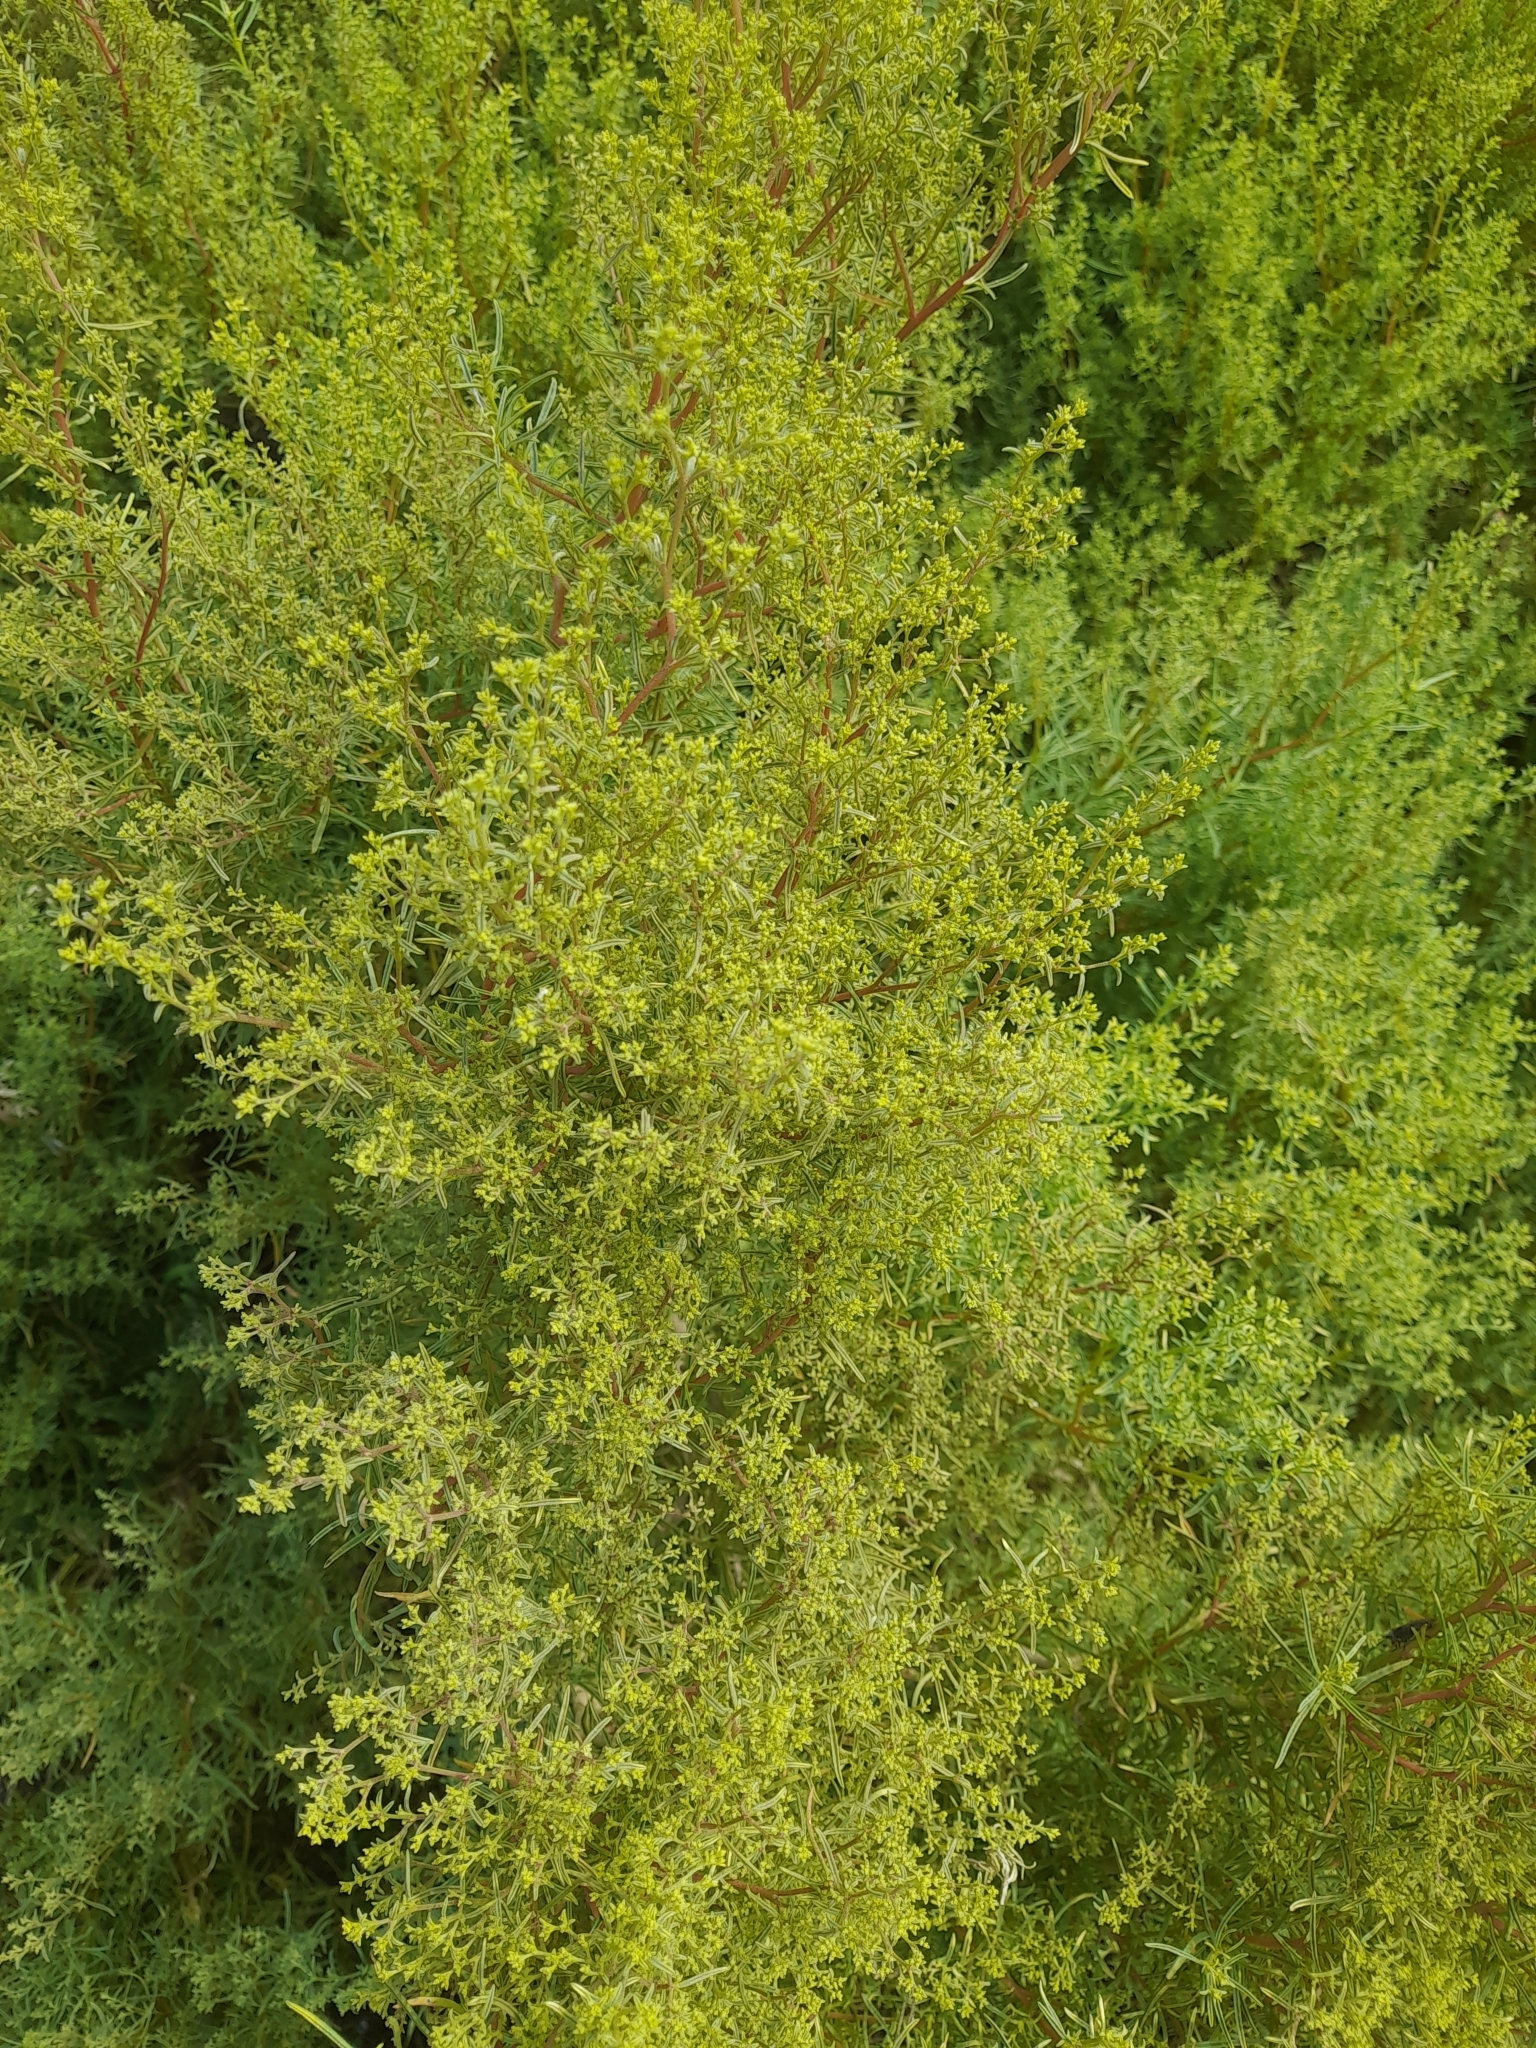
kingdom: Plantae
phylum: Tracheophyta
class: Magnoliopsida
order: Caryophyllales
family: Aizoaceae
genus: Aizoon
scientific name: Aizoon africanum
